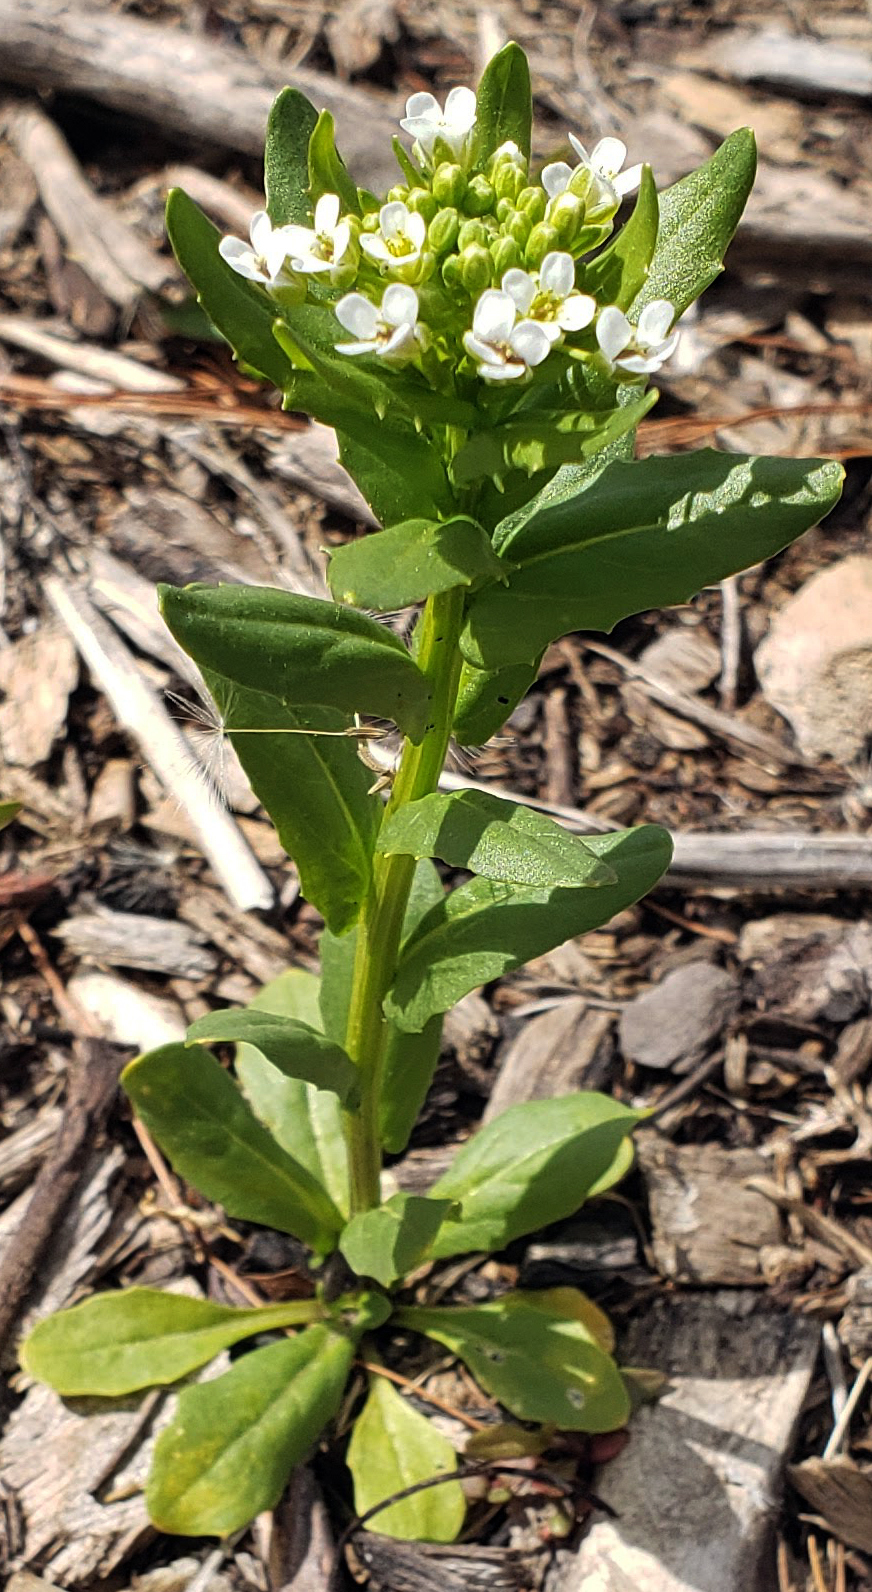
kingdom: Plantae
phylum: Tracheophyta
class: Magnoliopsida
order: Brassicales
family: Brassicaceae
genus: Thlaspi
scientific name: Thlaspi arvense
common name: Field pennycress
